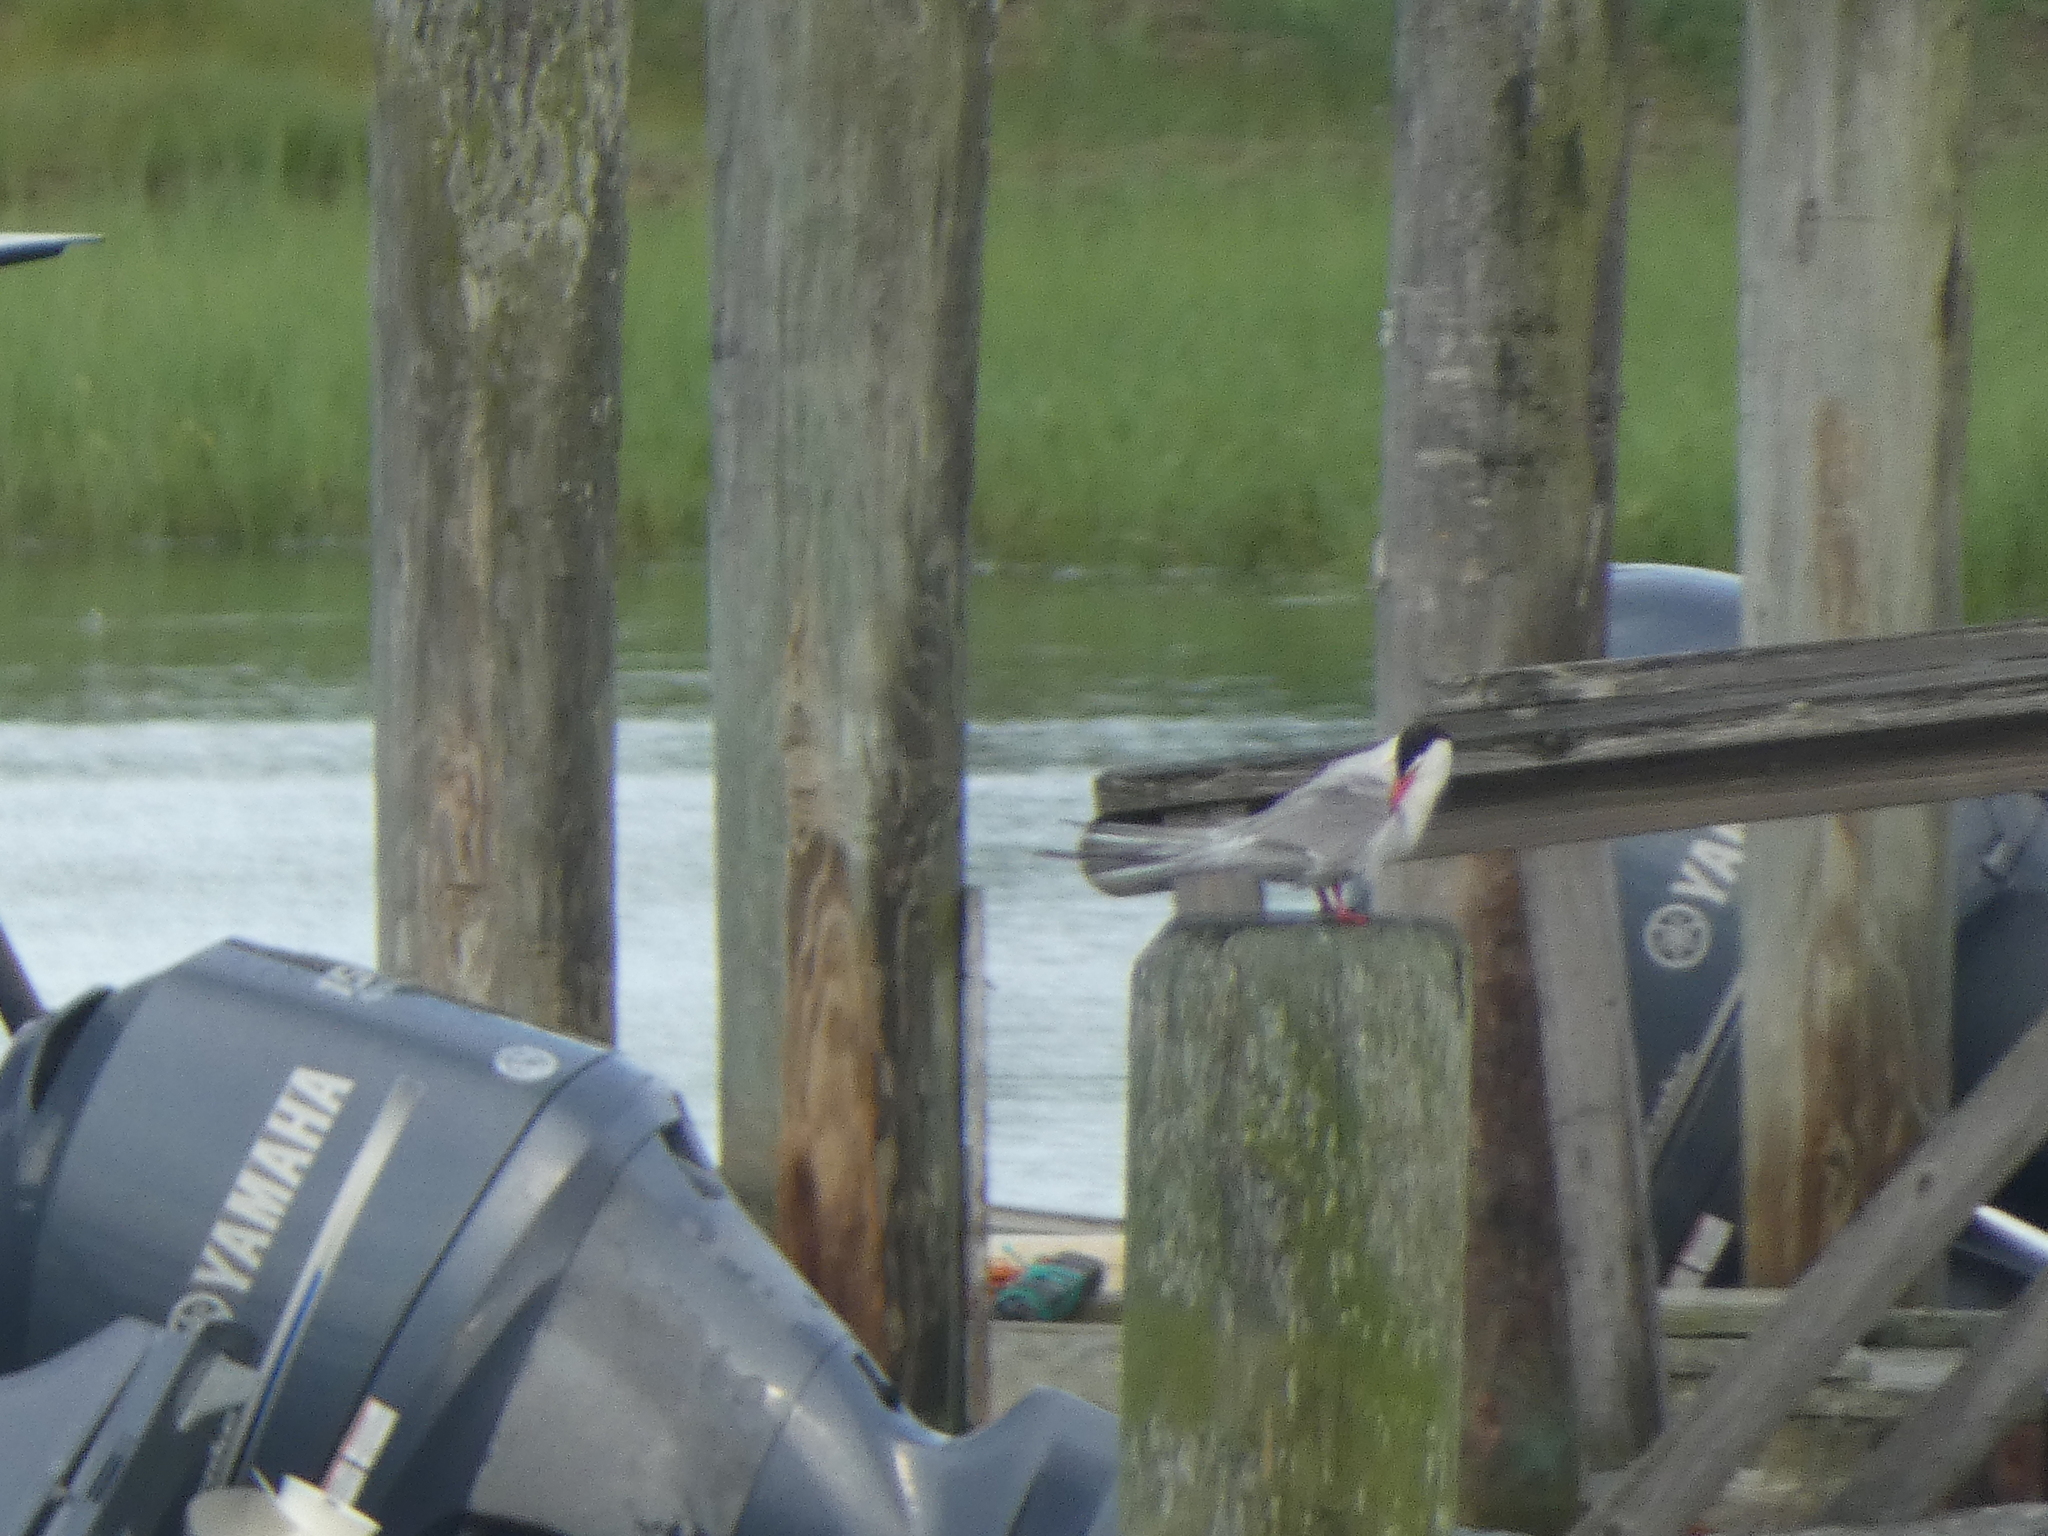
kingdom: Animalia
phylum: Chordata
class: Aves
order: Charadriiformes
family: Laridae
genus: Sterna
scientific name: Sterna hirundo
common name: Common tern
